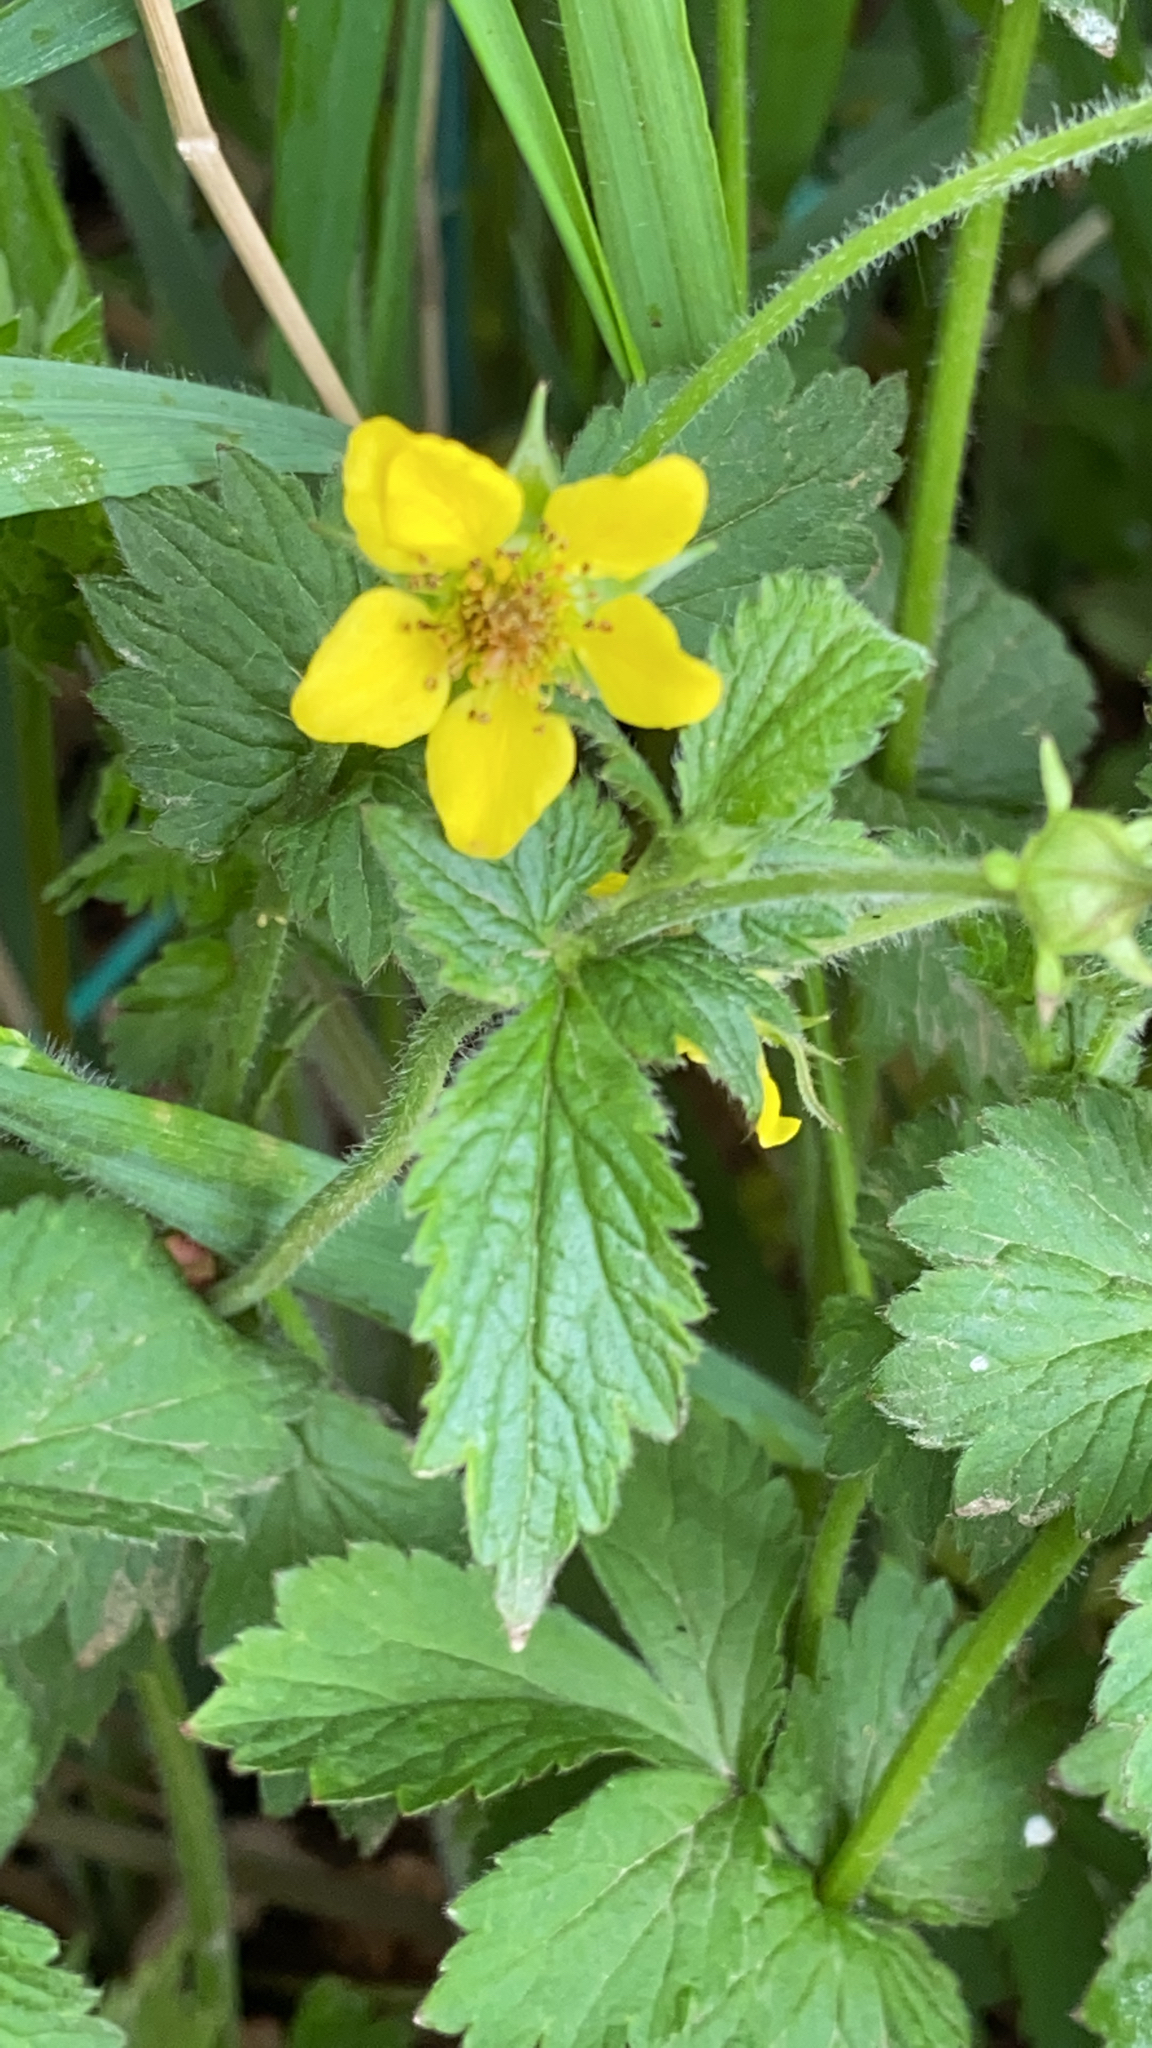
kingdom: Plantae
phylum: Tracheophyta
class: Magnoliopsida
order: Rosales
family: Rosaceae
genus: Geum
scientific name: Geum urbanum
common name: Wood avens
